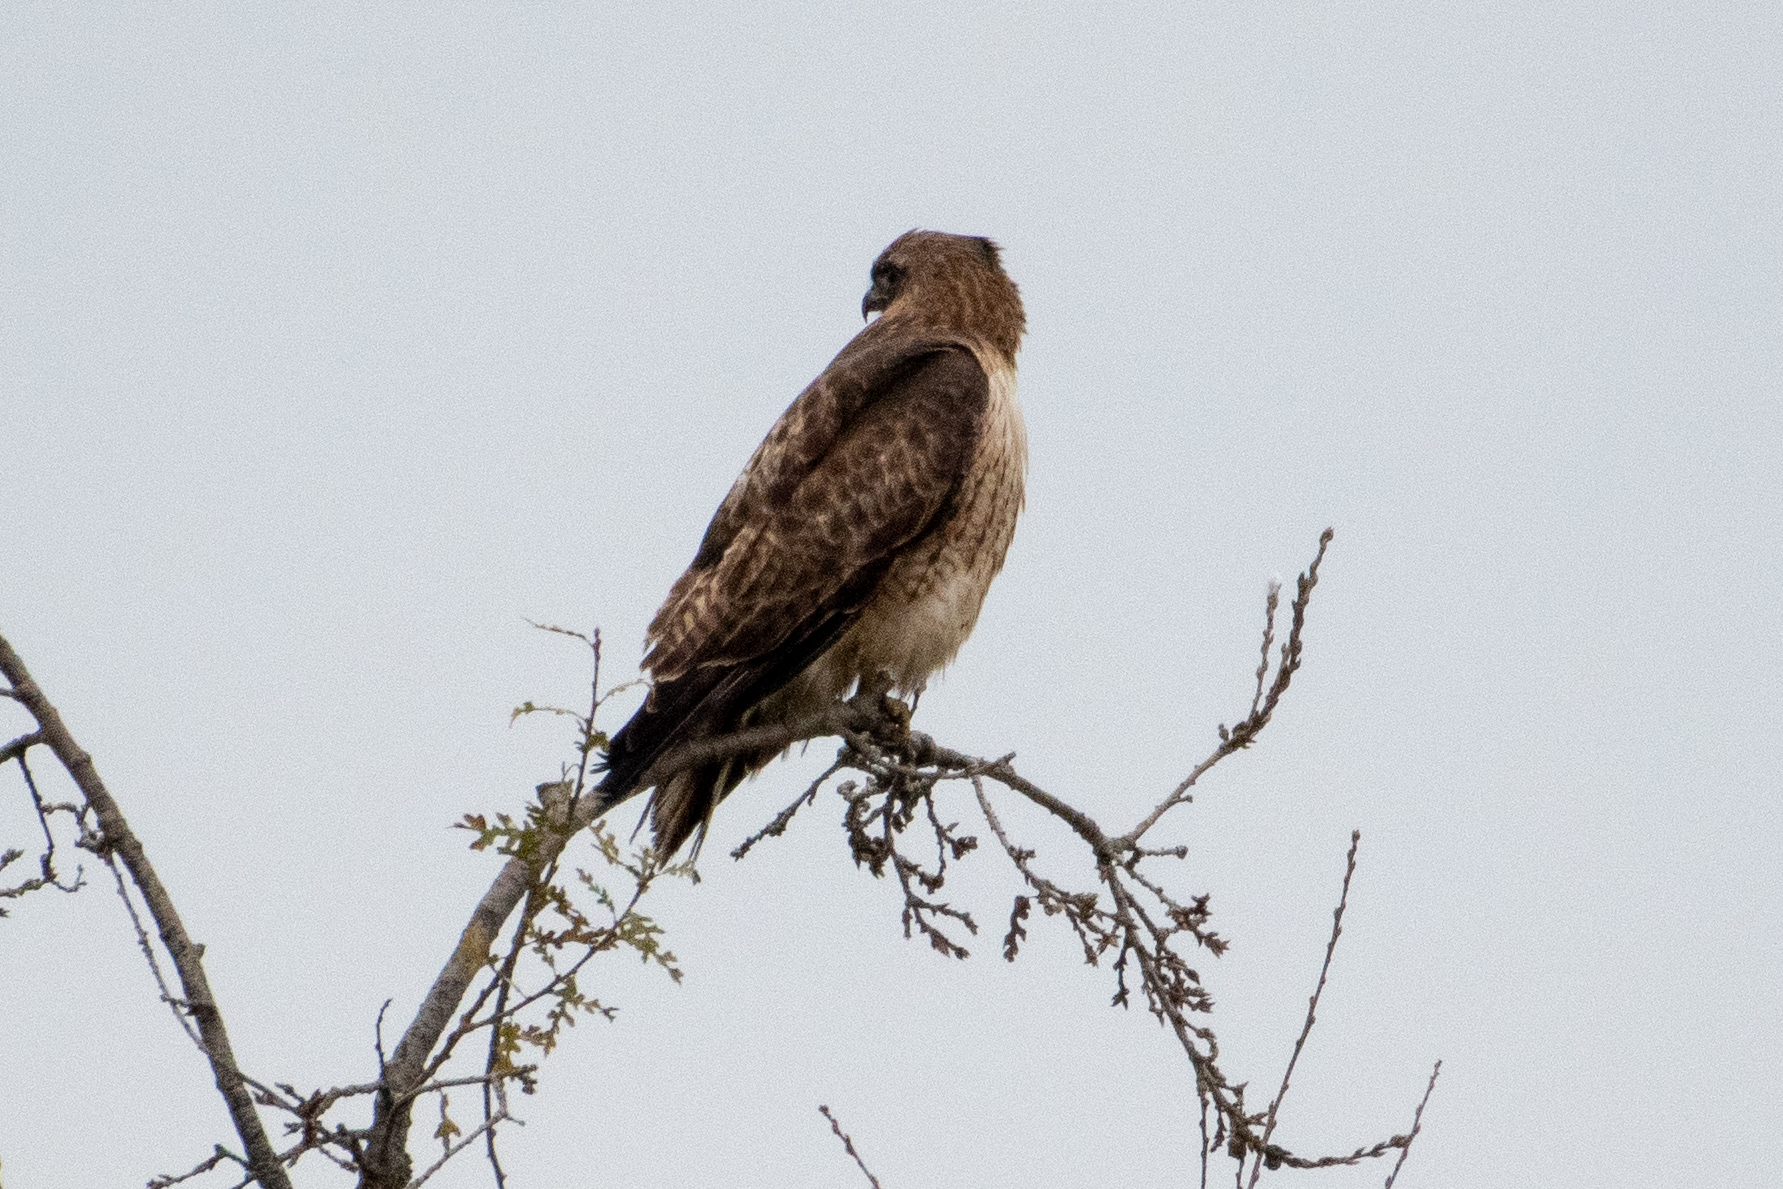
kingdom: Animalia
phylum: Chordata
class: Aves
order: Accipitriformes
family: Accipitridae
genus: Buteo
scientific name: Buteo jamaicensis
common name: Red-tailed hawk
